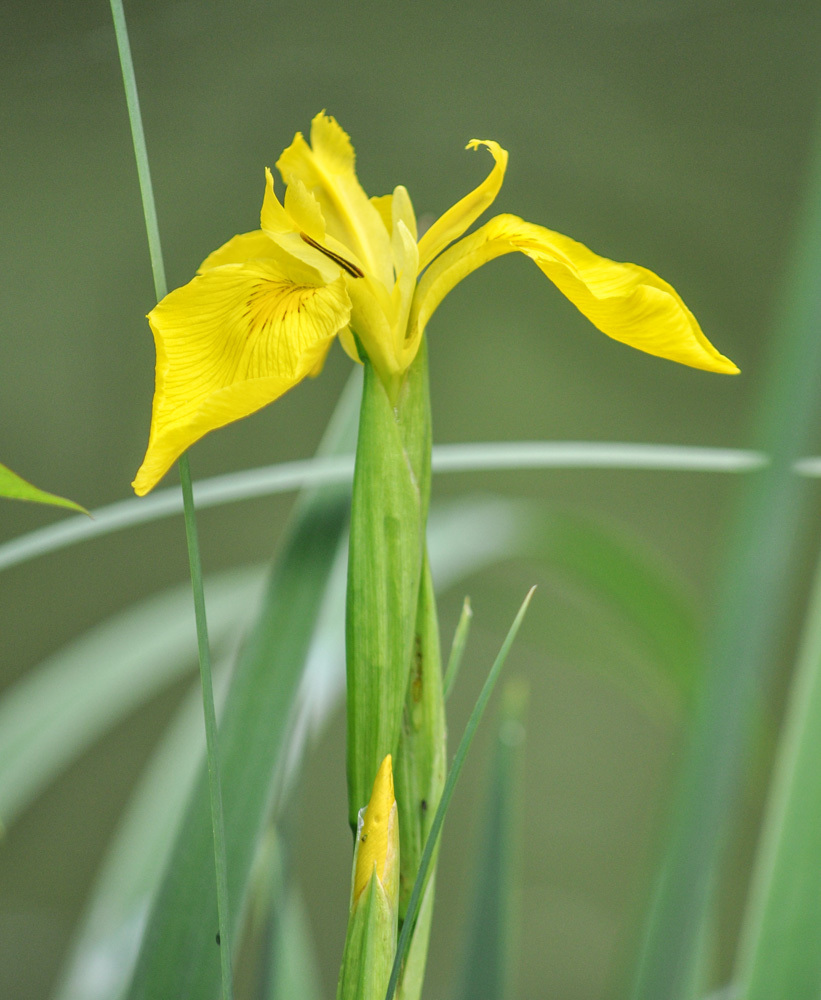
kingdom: Plantae
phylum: Tracheophyta
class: Liliopsida
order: Asparagales
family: Iridaceae
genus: Iris
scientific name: Iris pseudacorus
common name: Yellow flag
